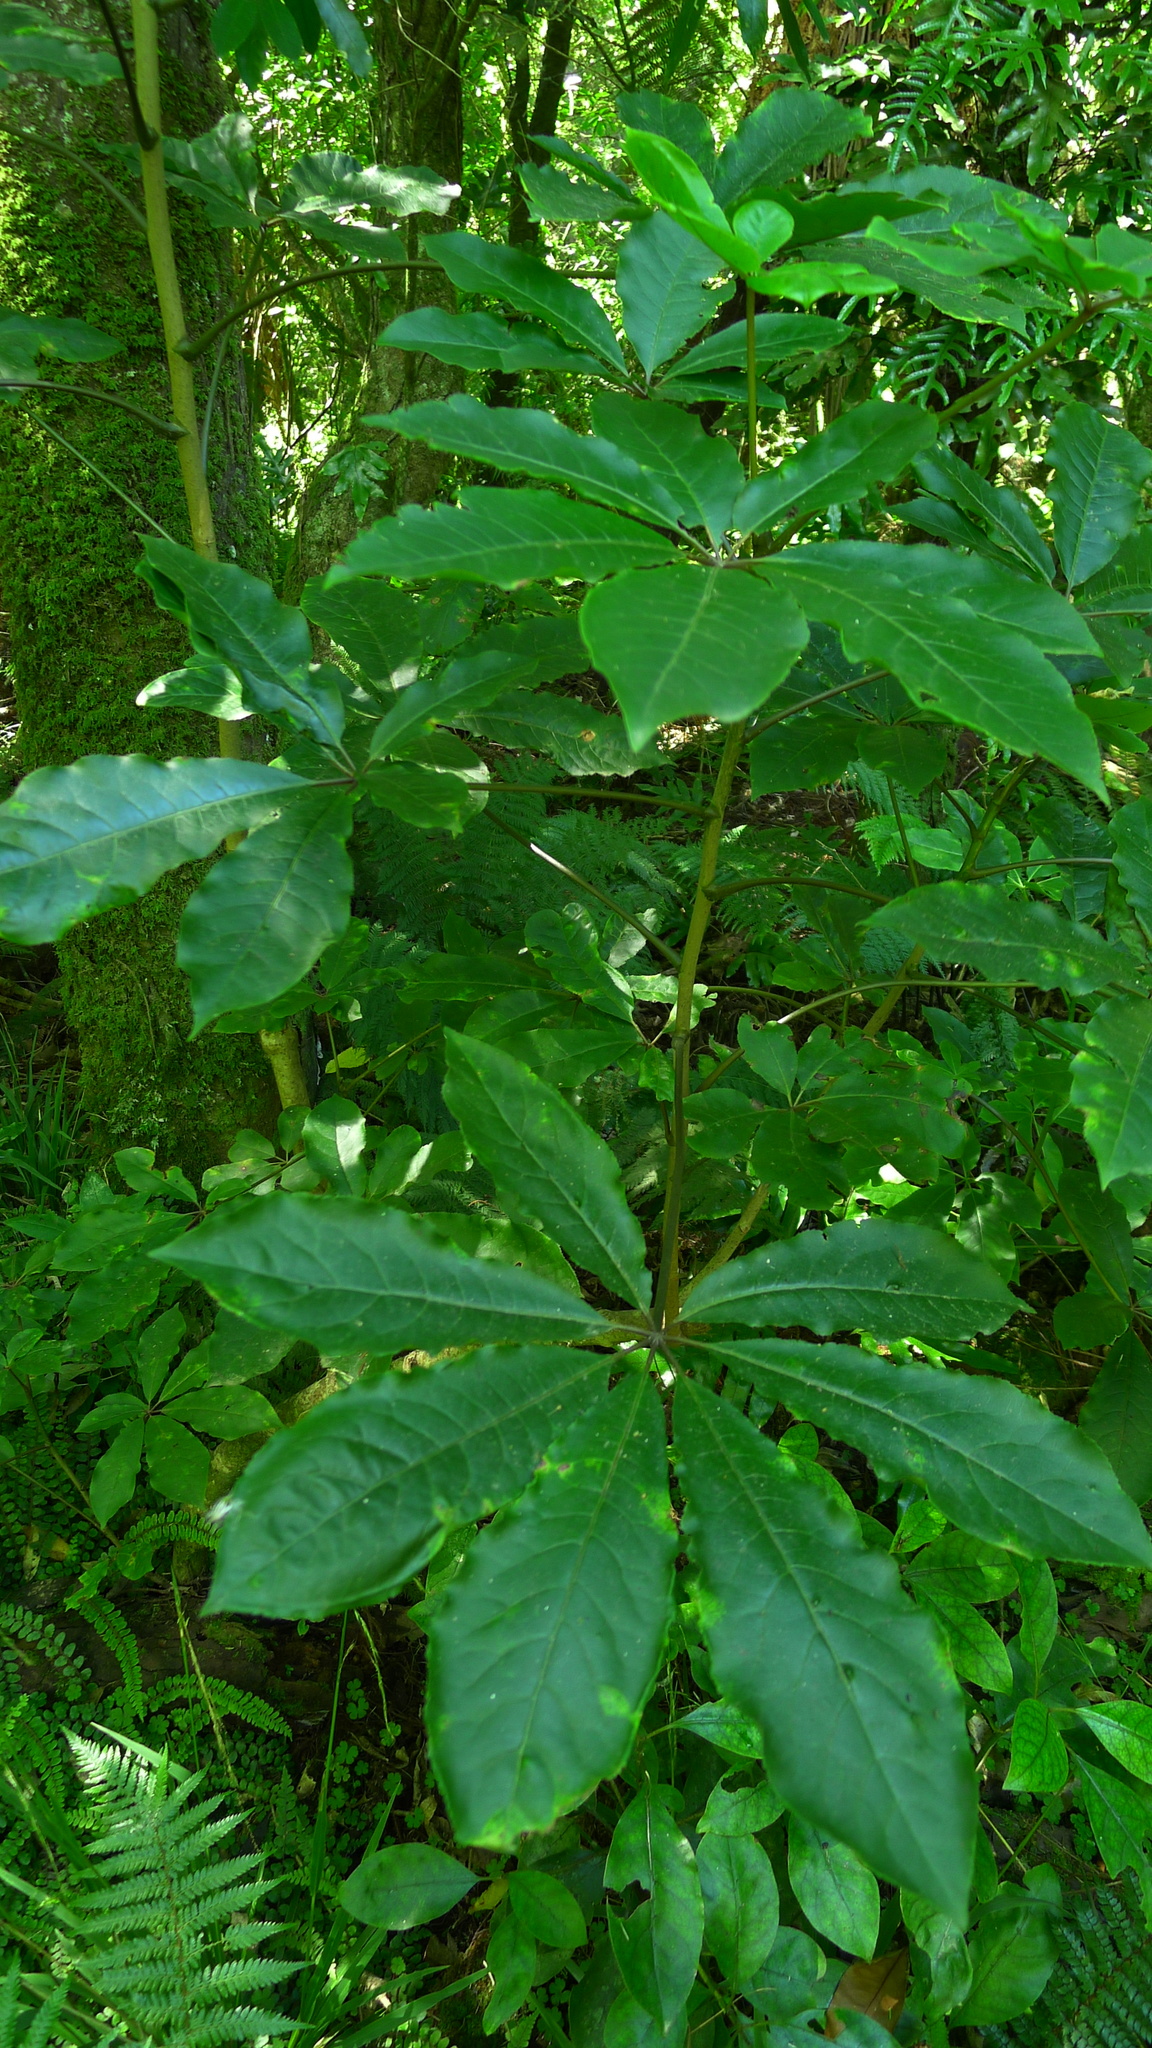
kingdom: Plantae
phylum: Tracheophyta
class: Magnoliopsida
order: Apiales
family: Araliaceae
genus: Schefflera
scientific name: Schefflera digitata
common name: Pate
